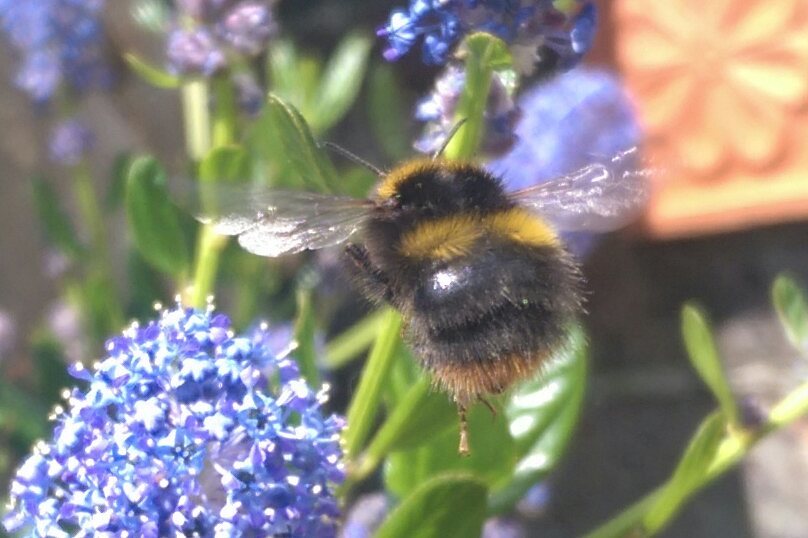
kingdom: Animalia
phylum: Arthropoda
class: Insecta
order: Hymenoptera
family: Apidae
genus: Bombus
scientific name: Bombus pratorum
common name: Early humble-bee
